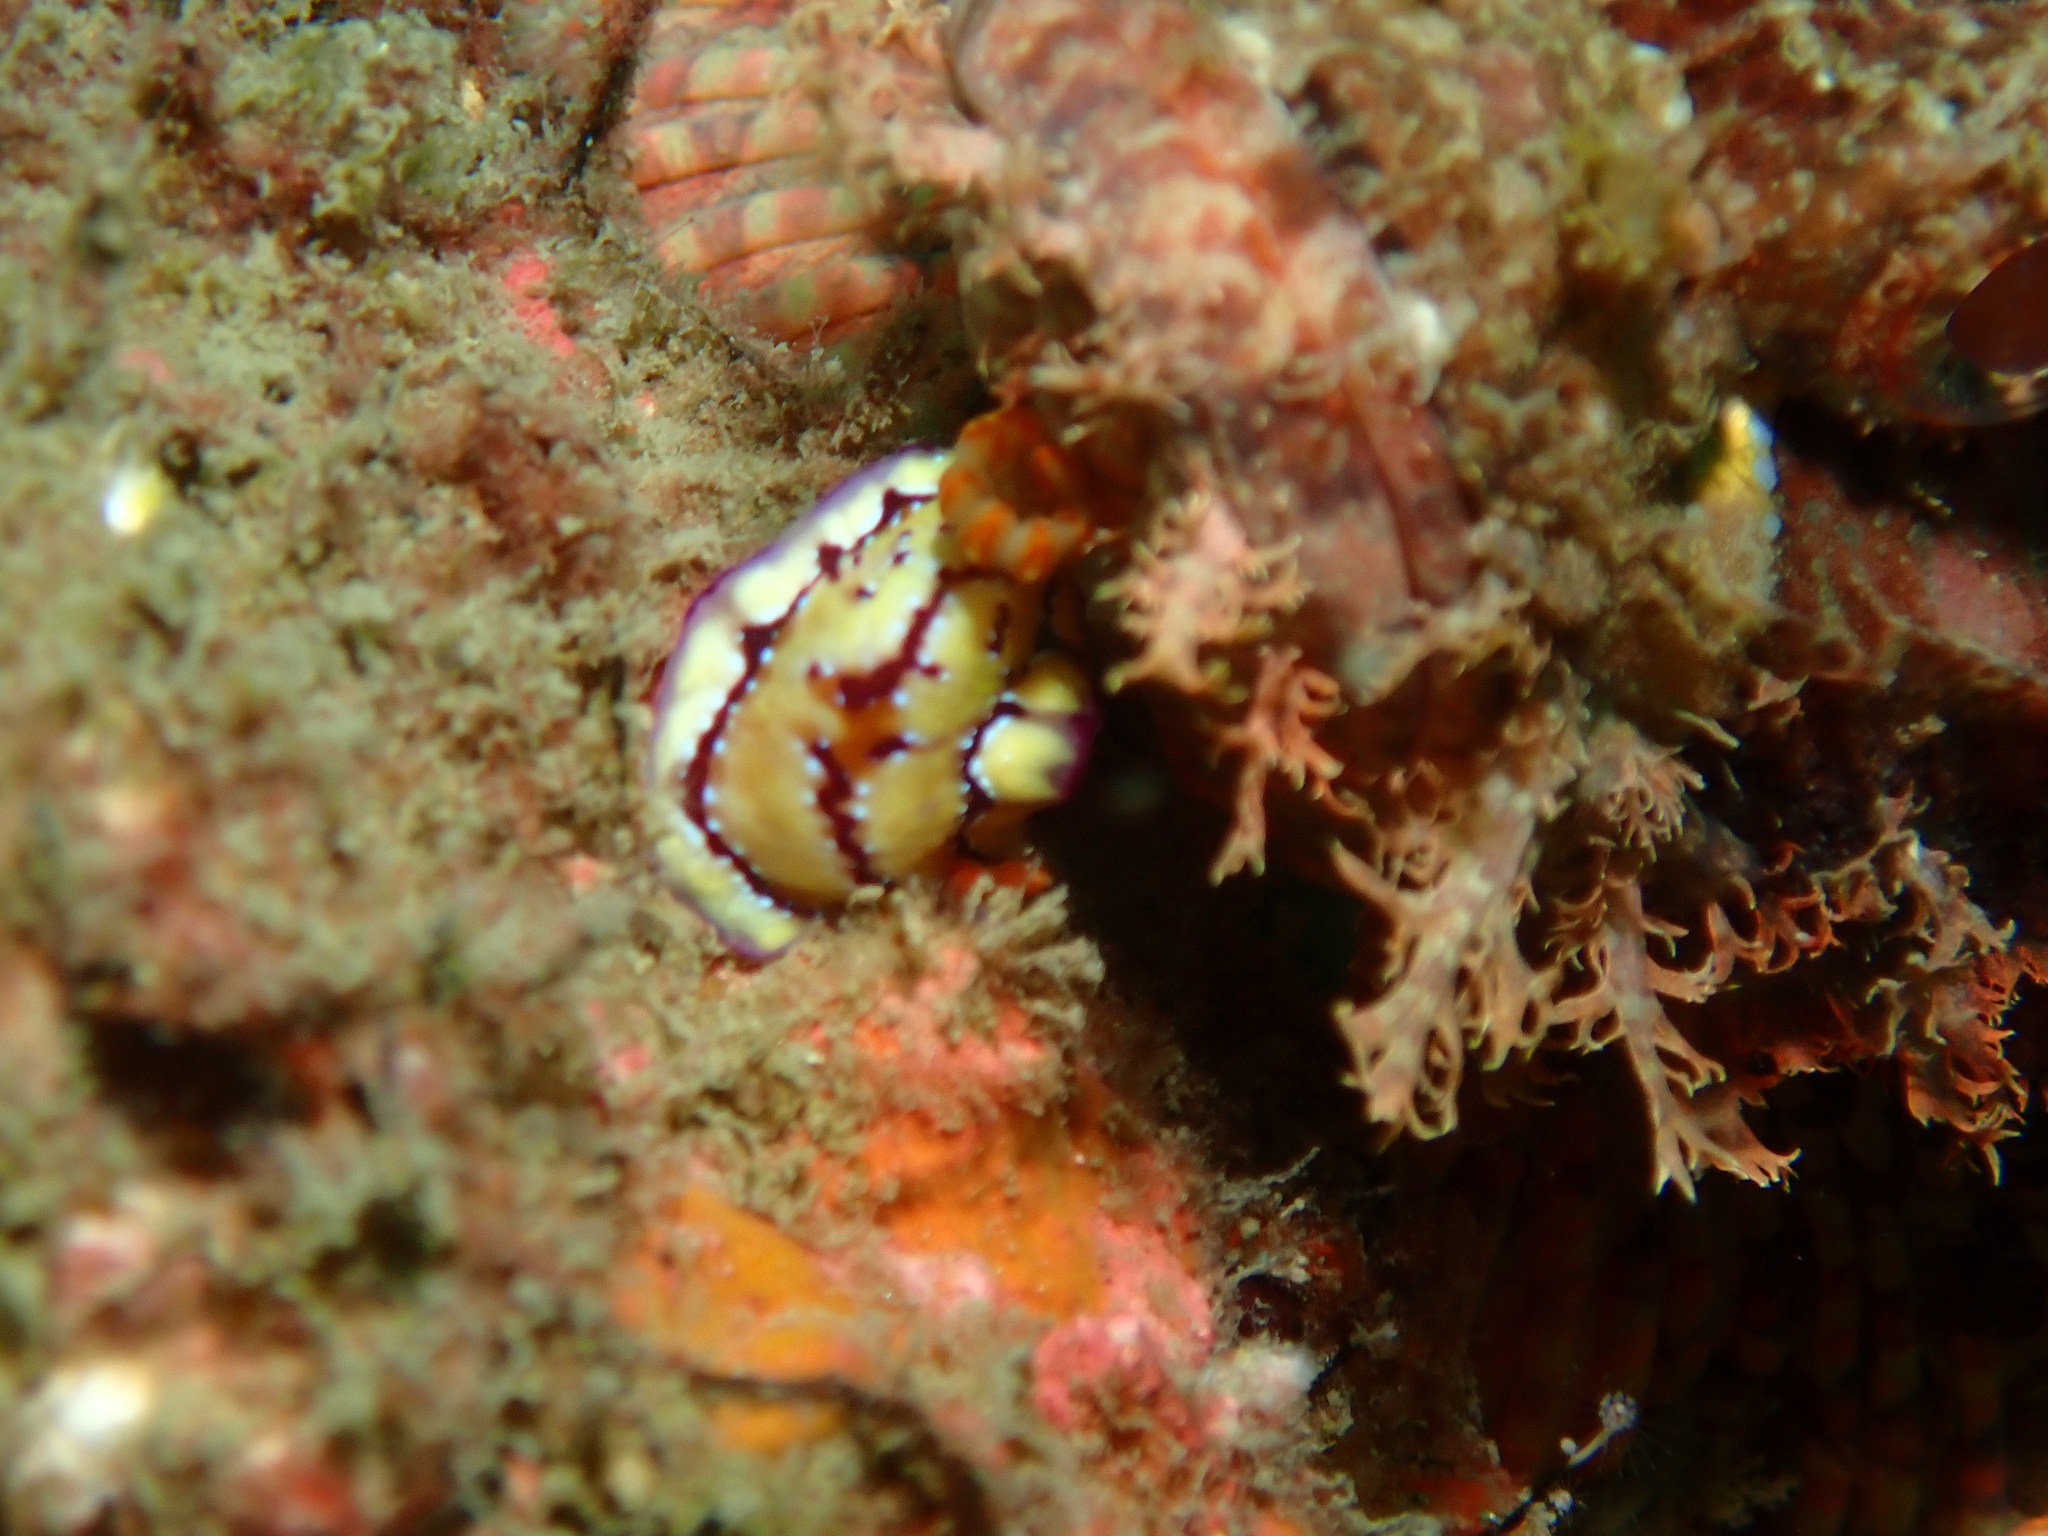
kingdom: Animalia
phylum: Mollusca
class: Gastropoda
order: Nudibranchia
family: Chromodorididae
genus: Hypselodoris
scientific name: Hypselodoris cerisae
